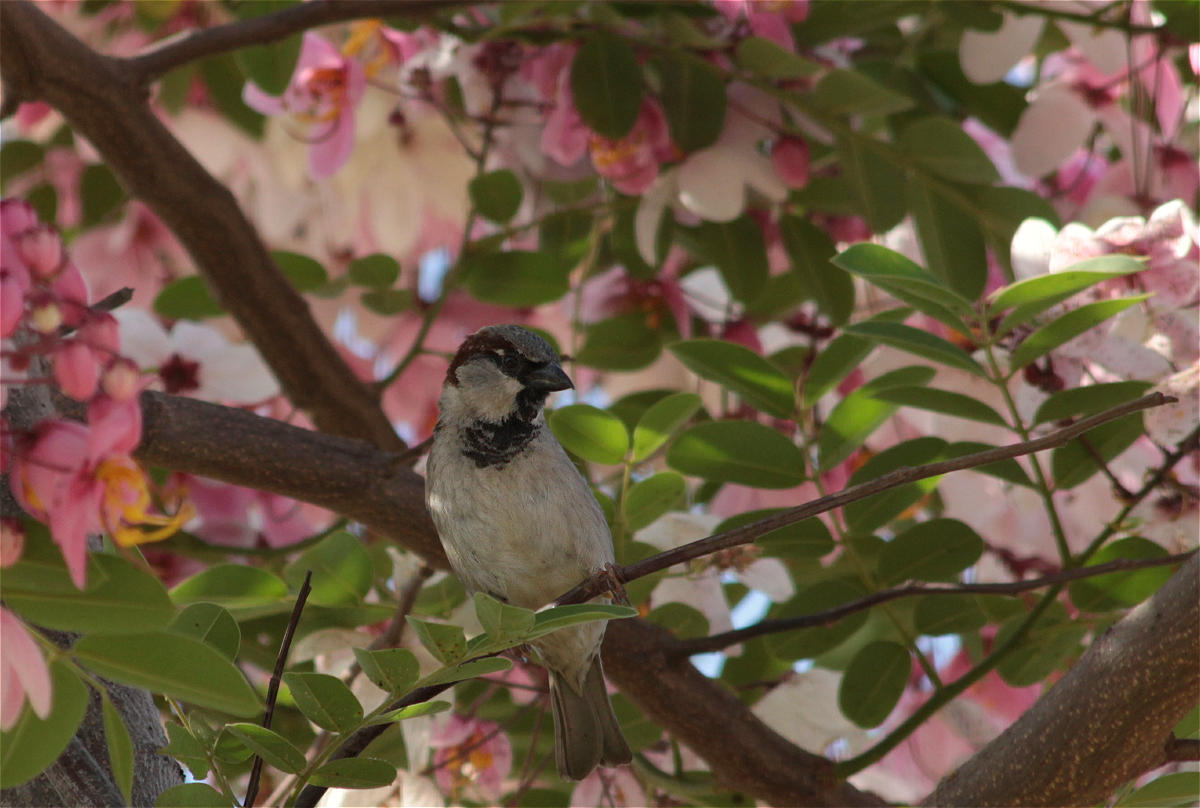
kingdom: Animalia
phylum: Chordata
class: Aves
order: Passeriformes
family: Passeridae
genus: Passer
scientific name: Passer domesticus
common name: House sparrow
